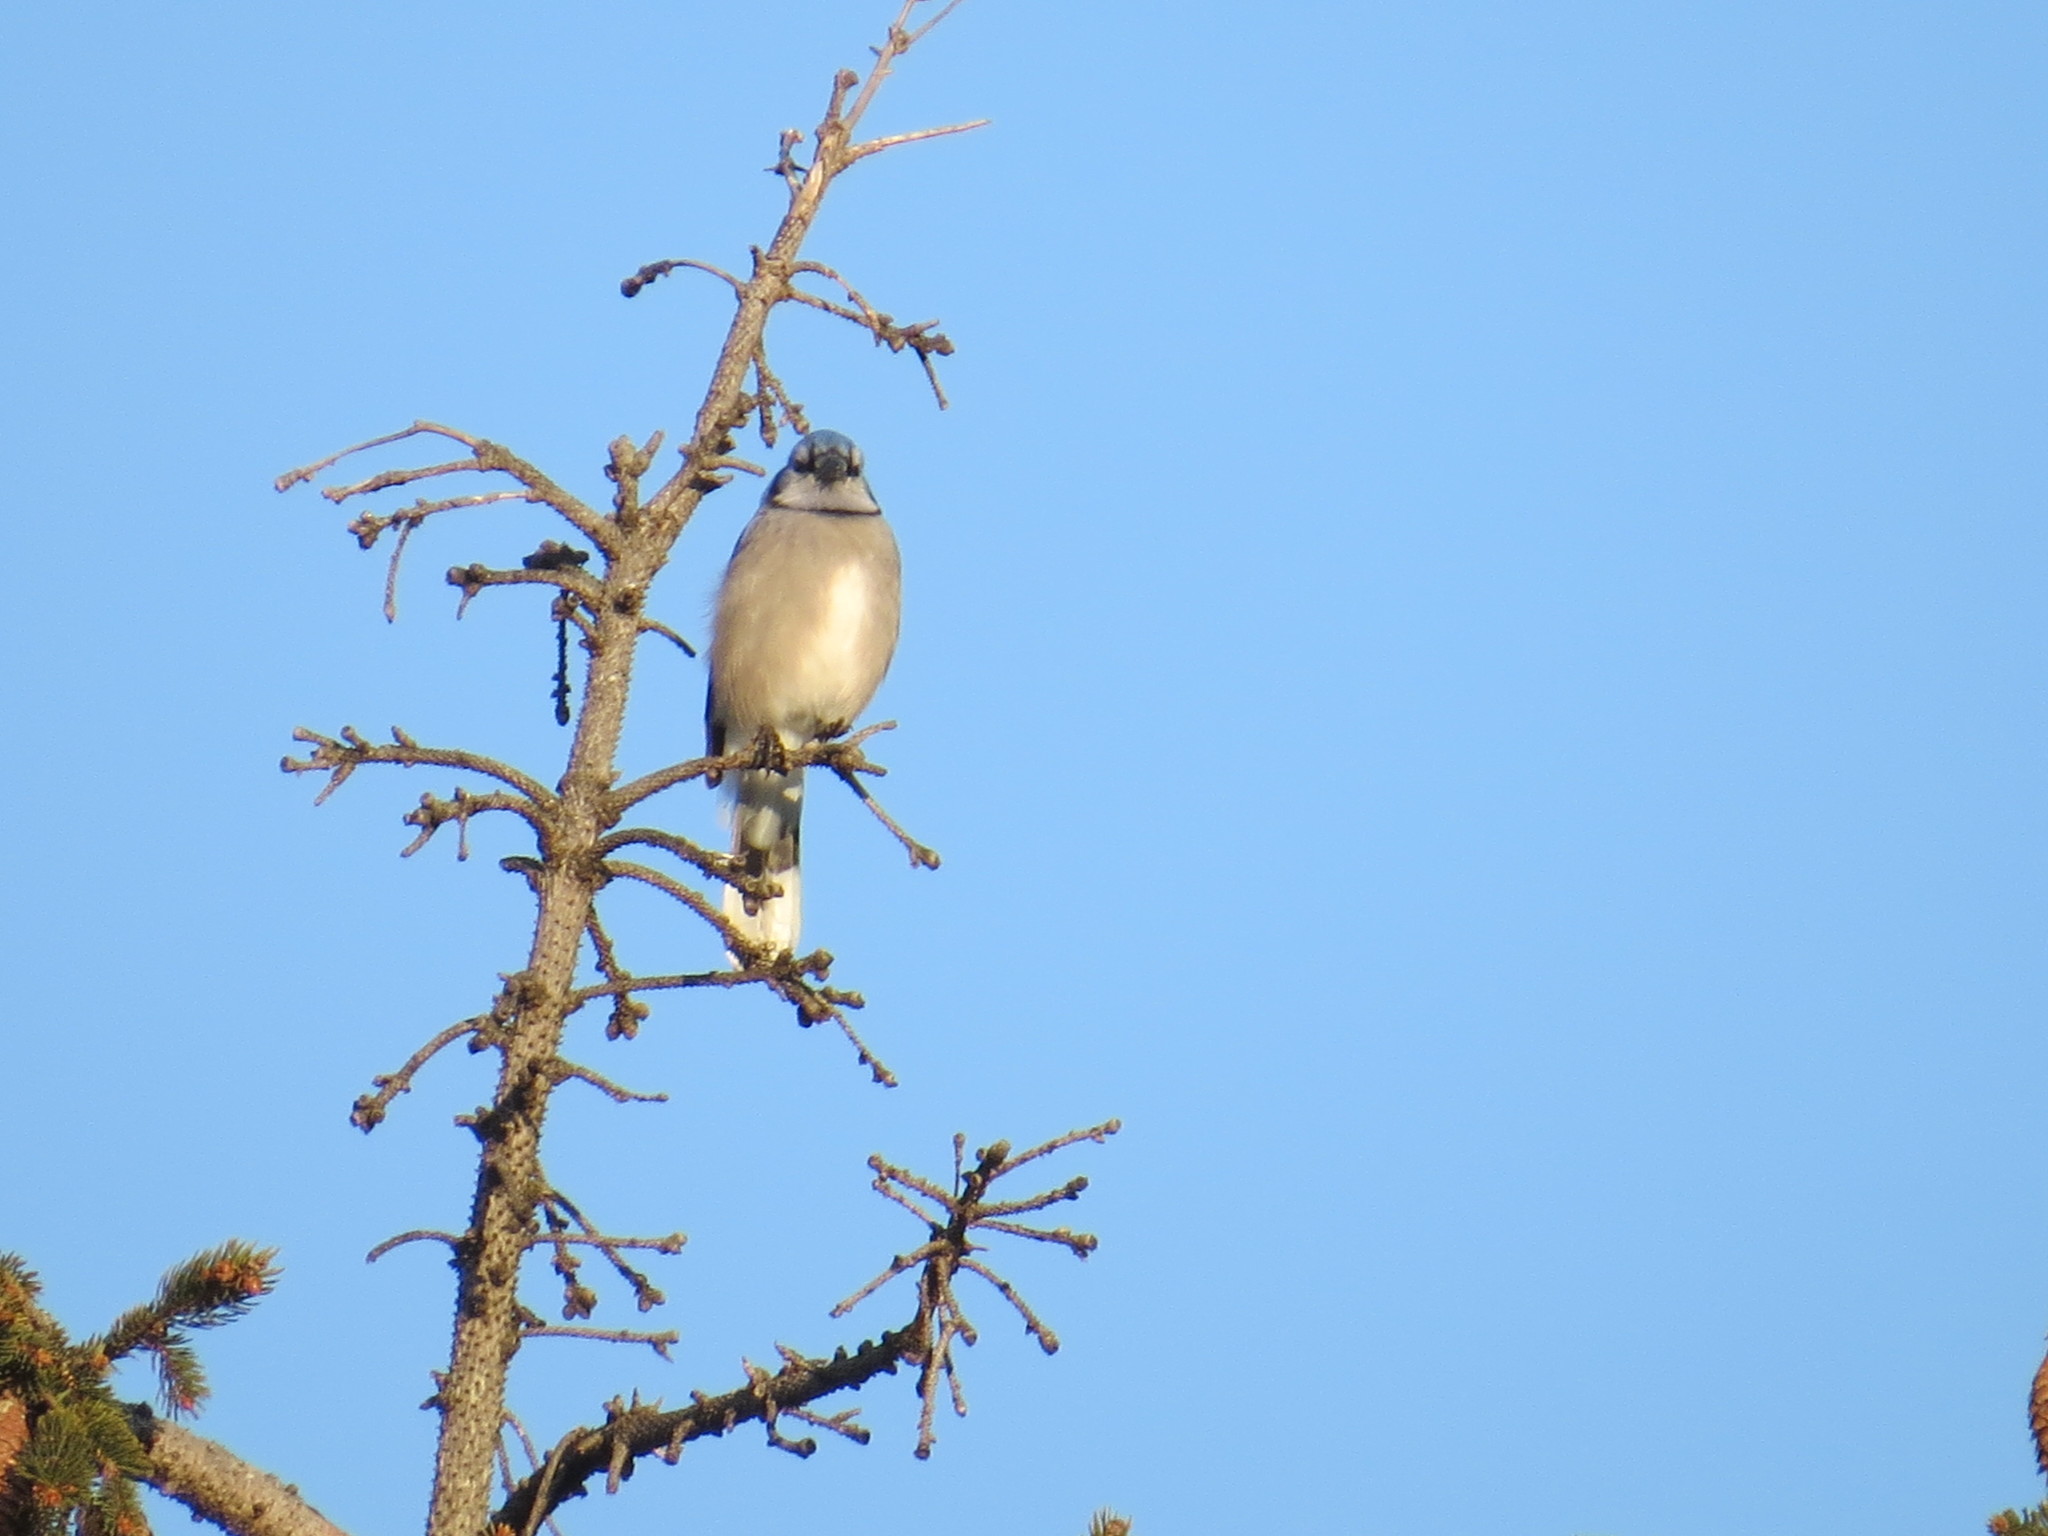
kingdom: Animalia
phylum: Chordata
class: Aves
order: Passeriformes
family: Corvidae
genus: Cyanocitta
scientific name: Cyanocitta cristata
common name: Blue jay
